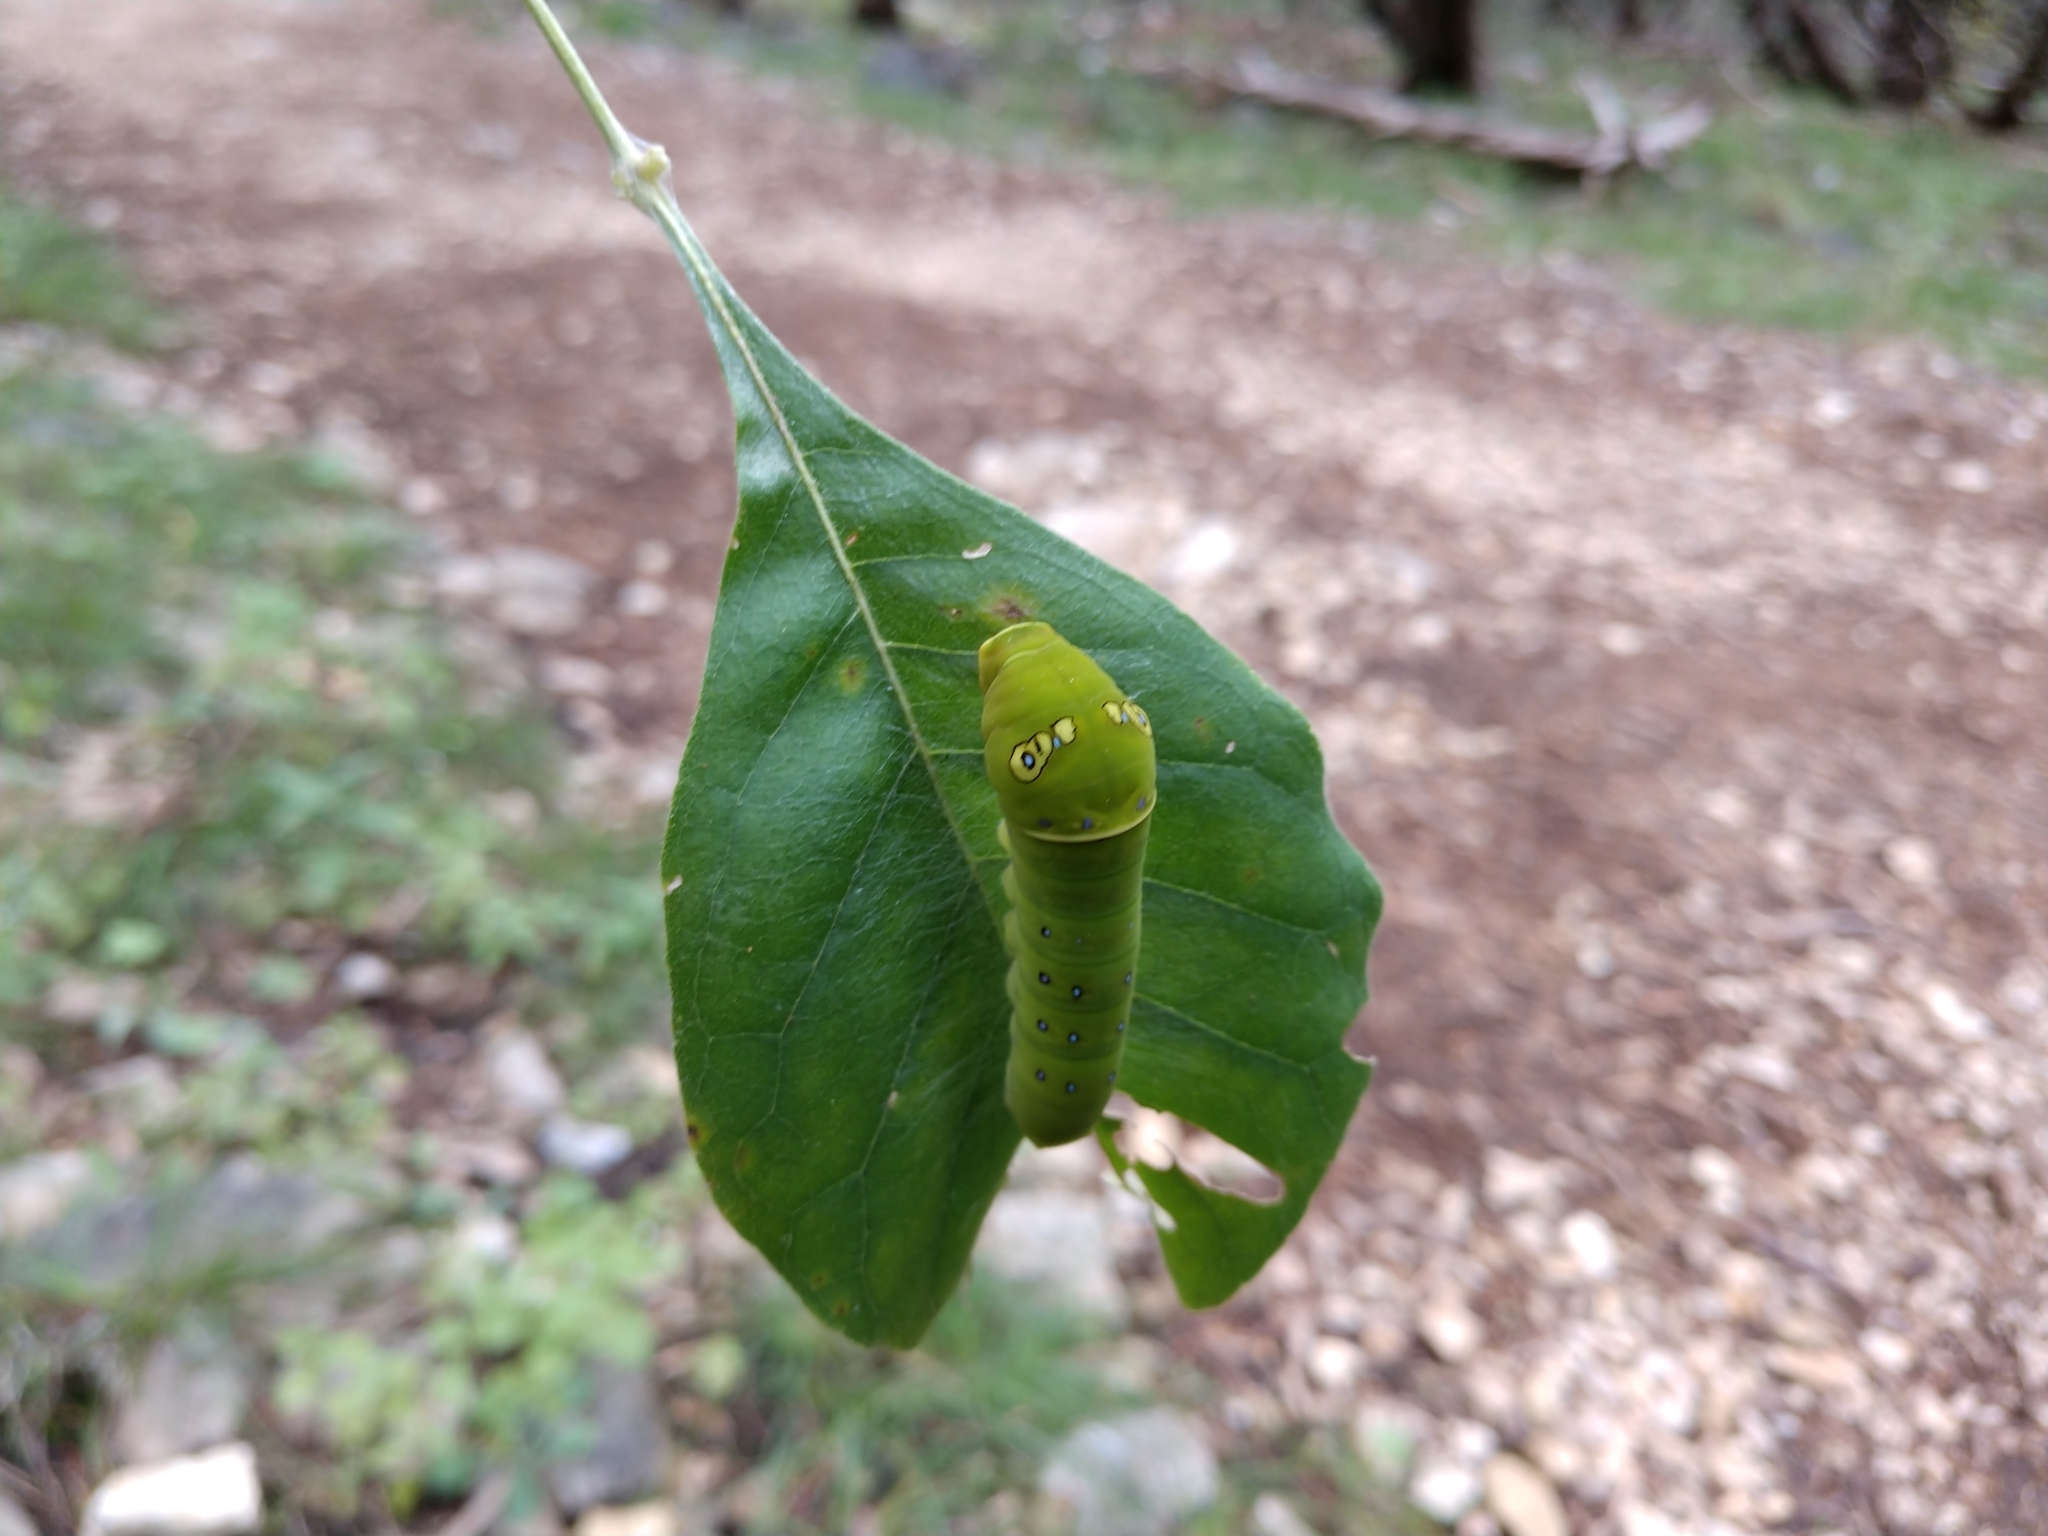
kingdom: Animalia
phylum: Arthropoda
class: Insecta
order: Lepidoptera
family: Papilionidae
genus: Papilio
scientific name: Papilio multicaudata
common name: Two-tailed tiger swallowtail
